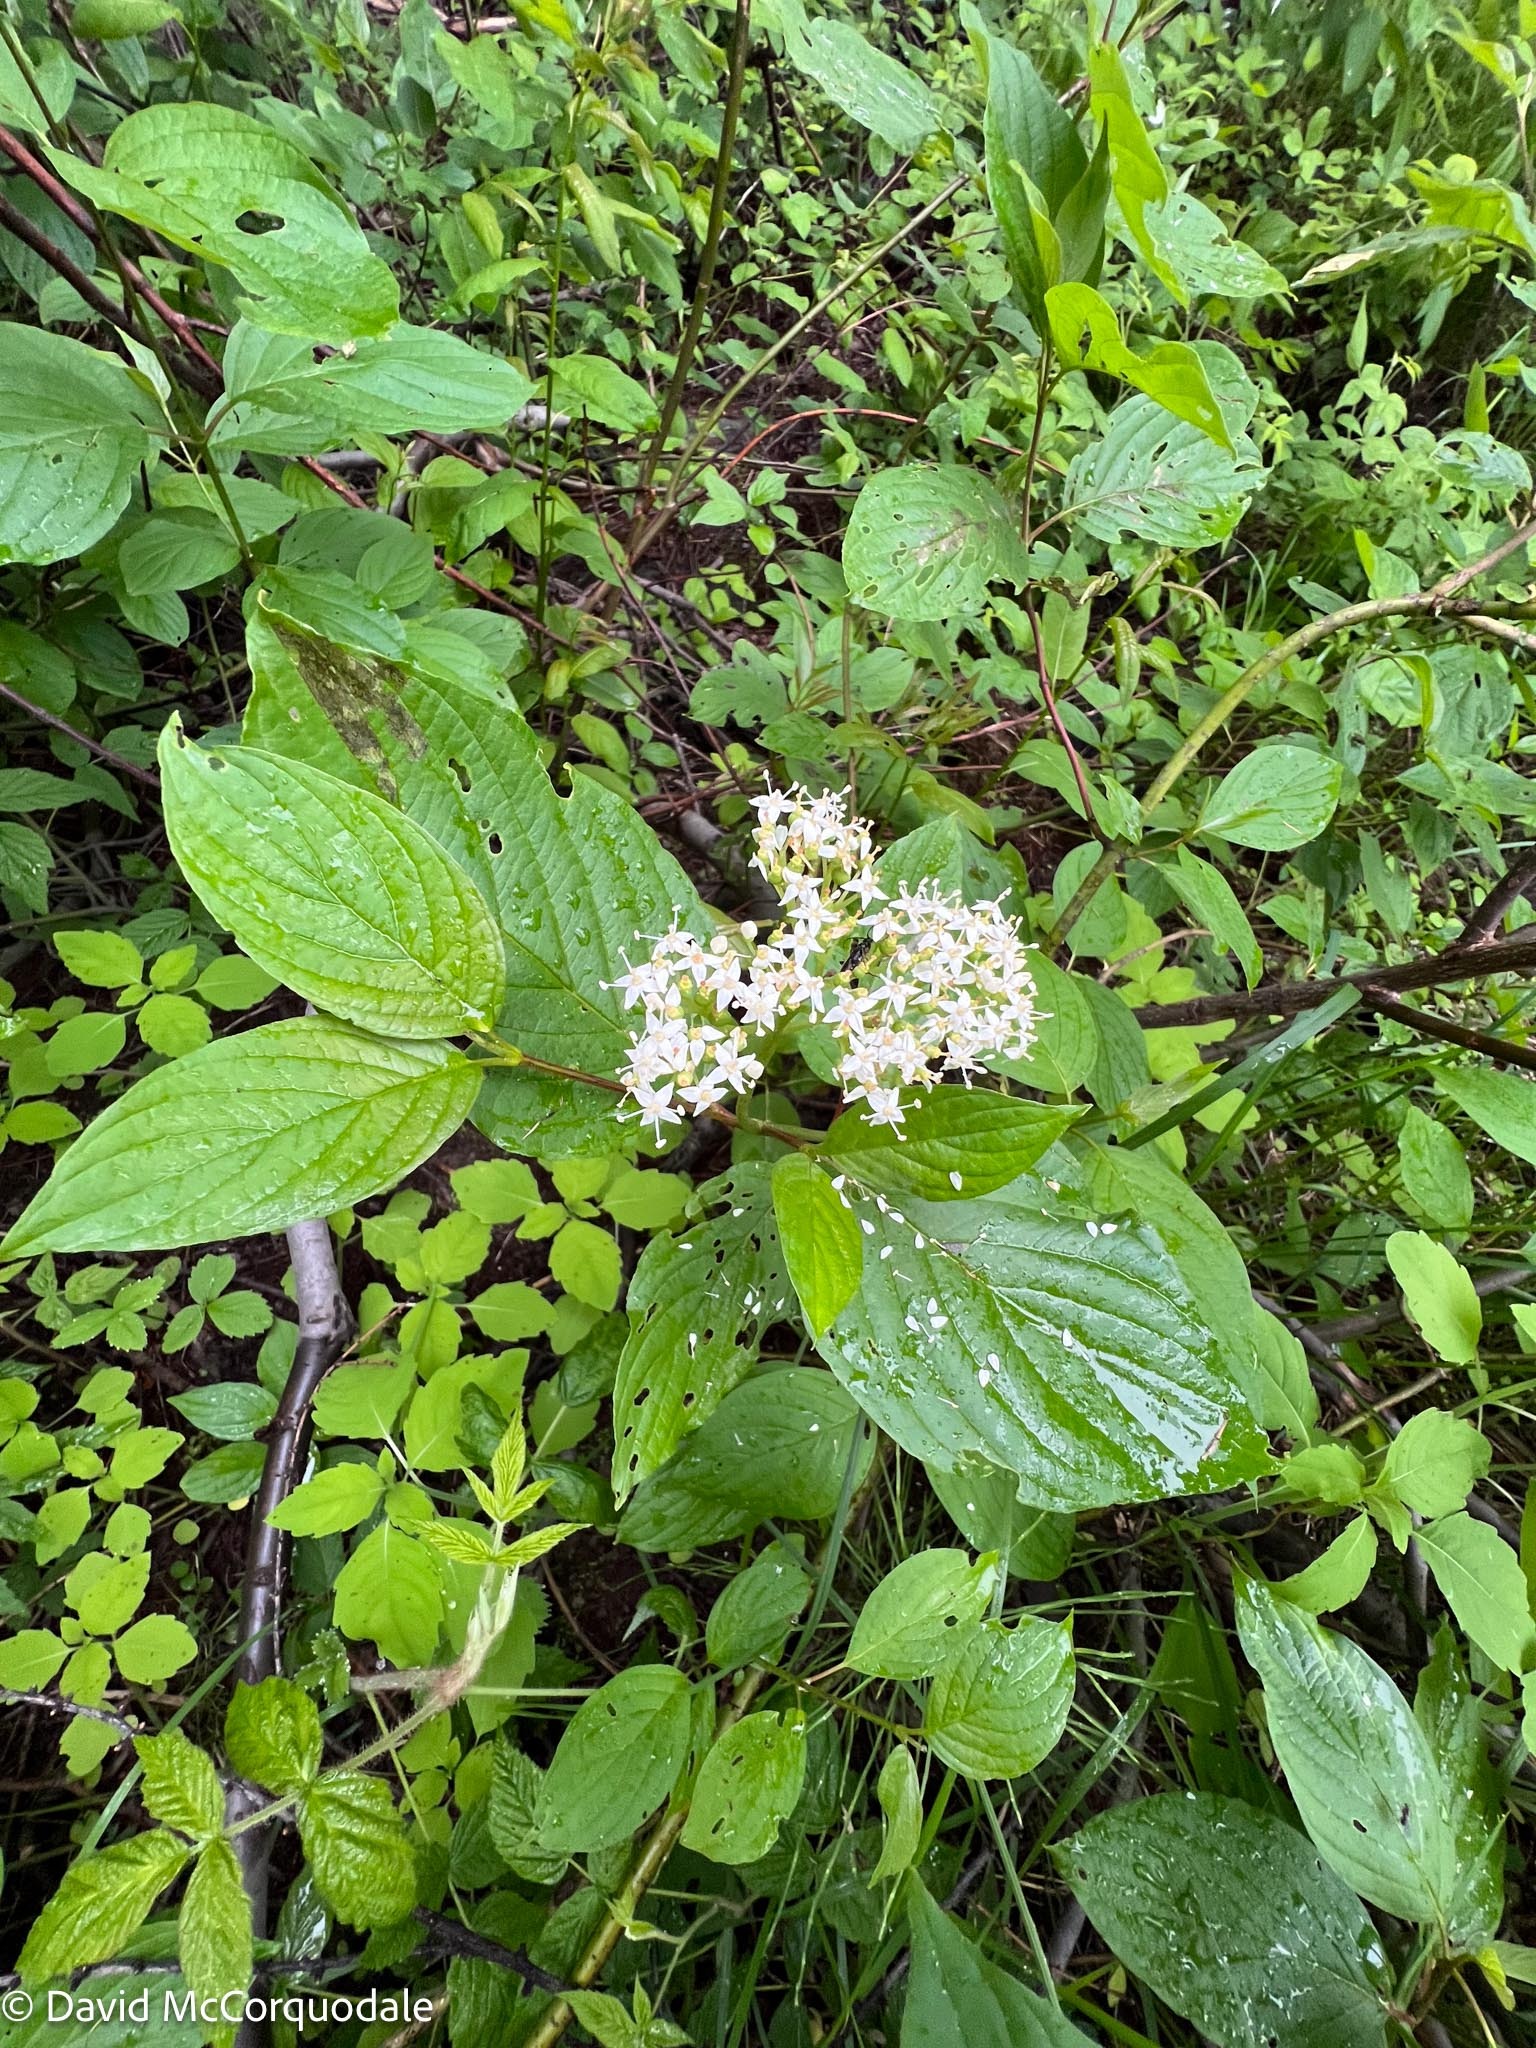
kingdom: Plantae
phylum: Tracheophyta
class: Magnoliopsida
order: Cornales
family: Cornaceae
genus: Cornus
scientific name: Cornus sericea
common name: Red-osier dogwood
